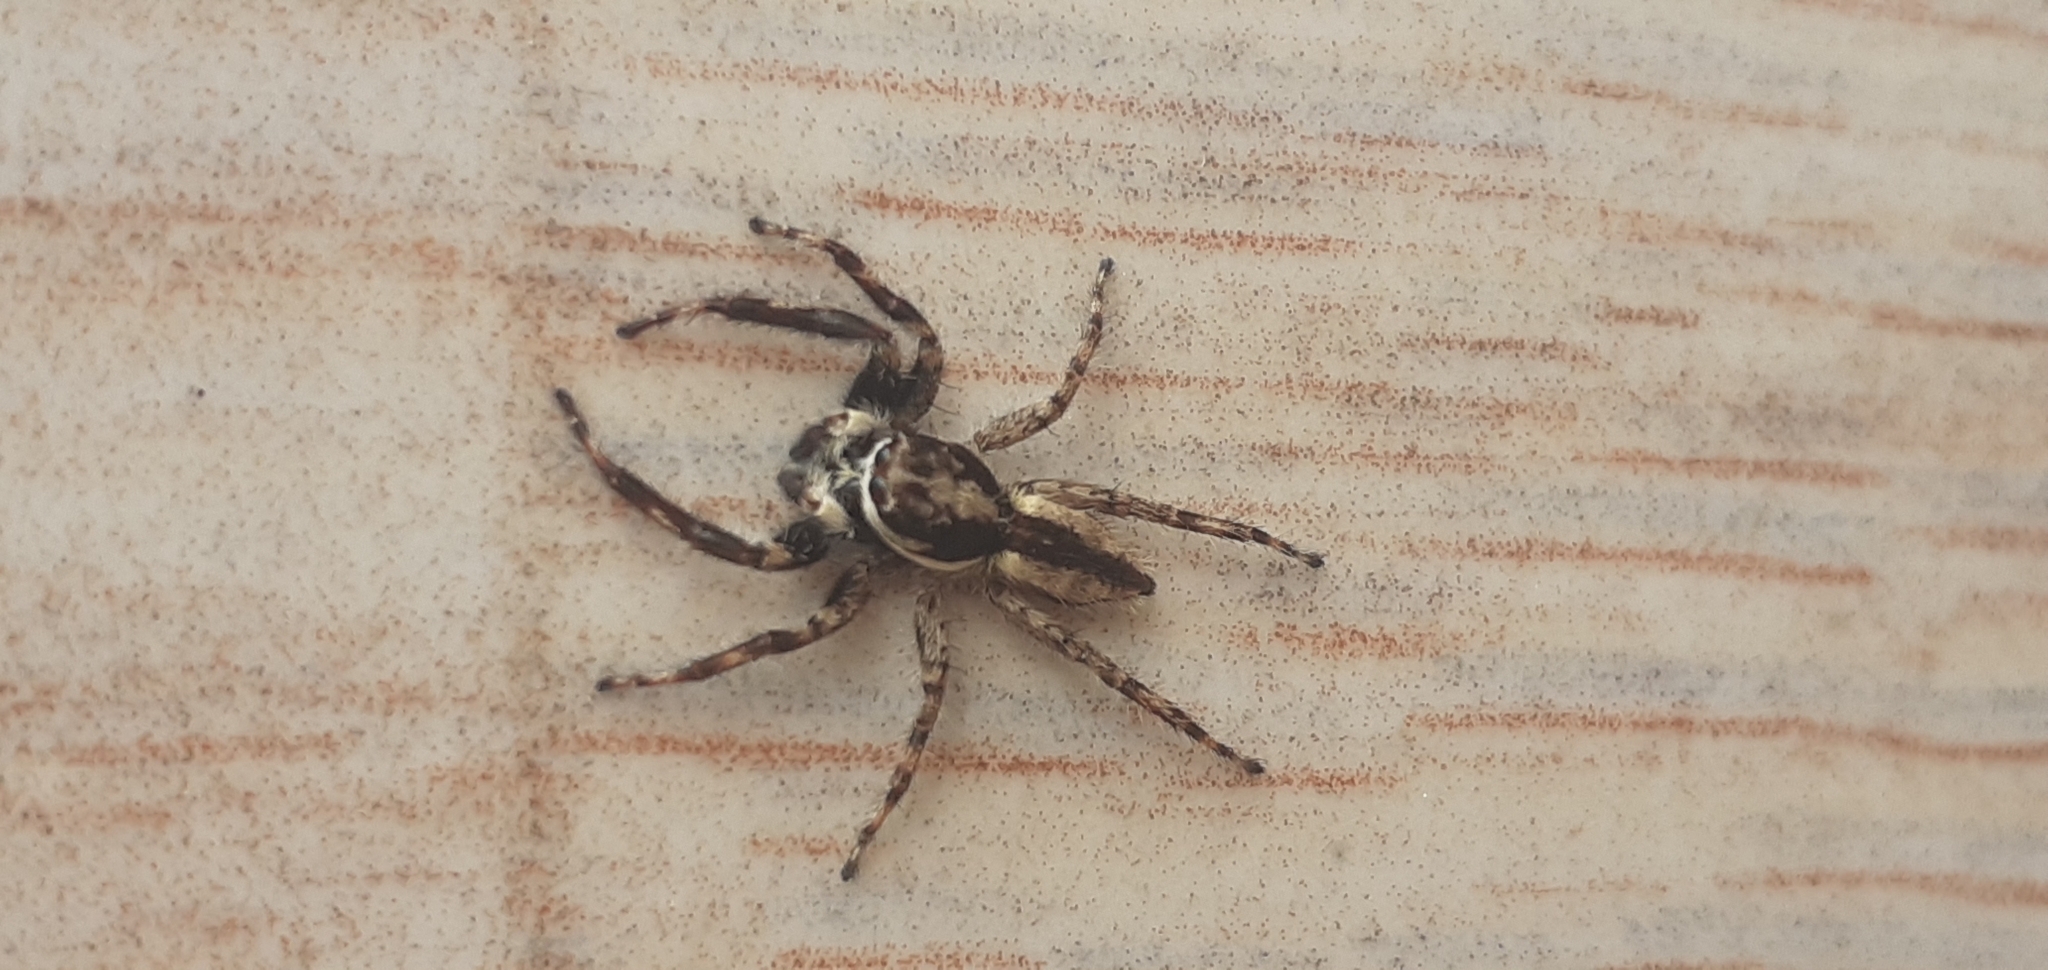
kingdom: Animalia
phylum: Arthropoda
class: Arachnida
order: Araneae
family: Salticidae
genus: Menemerus
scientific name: Menemerus bivittatus
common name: Gray wall jumper
